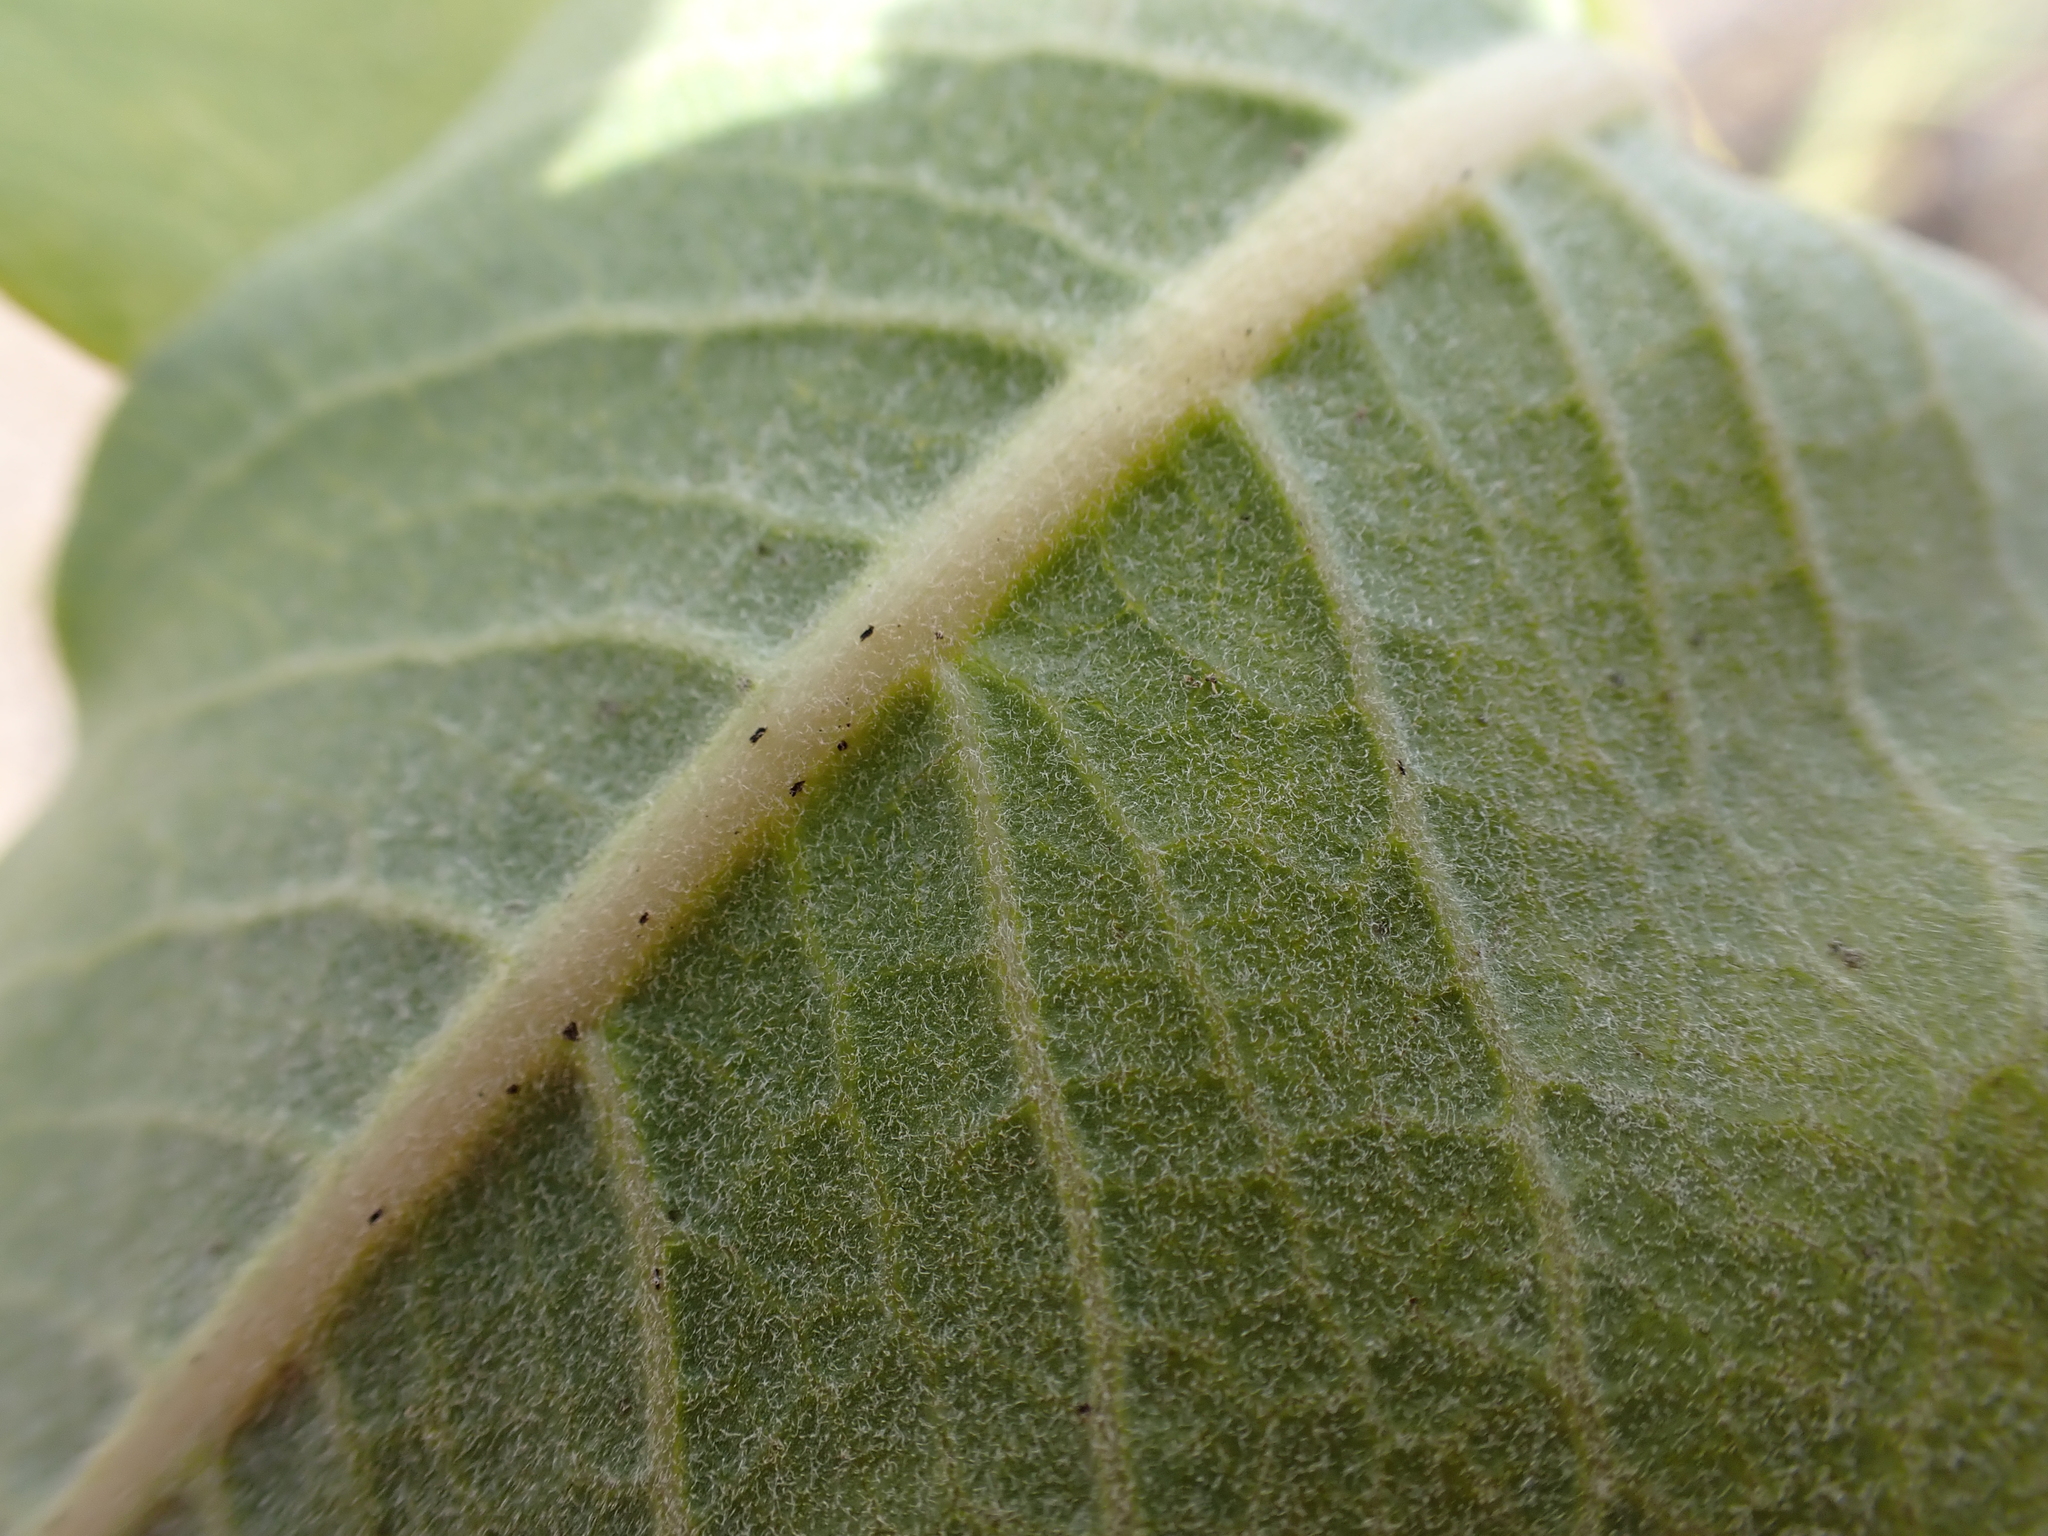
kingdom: Plantae
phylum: Tracheophyta
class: Magnoliopsida
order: Gentianales
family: Apocynaceae
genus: Asclepias
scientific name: Asclepias speciosa
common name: Showy milkweed
